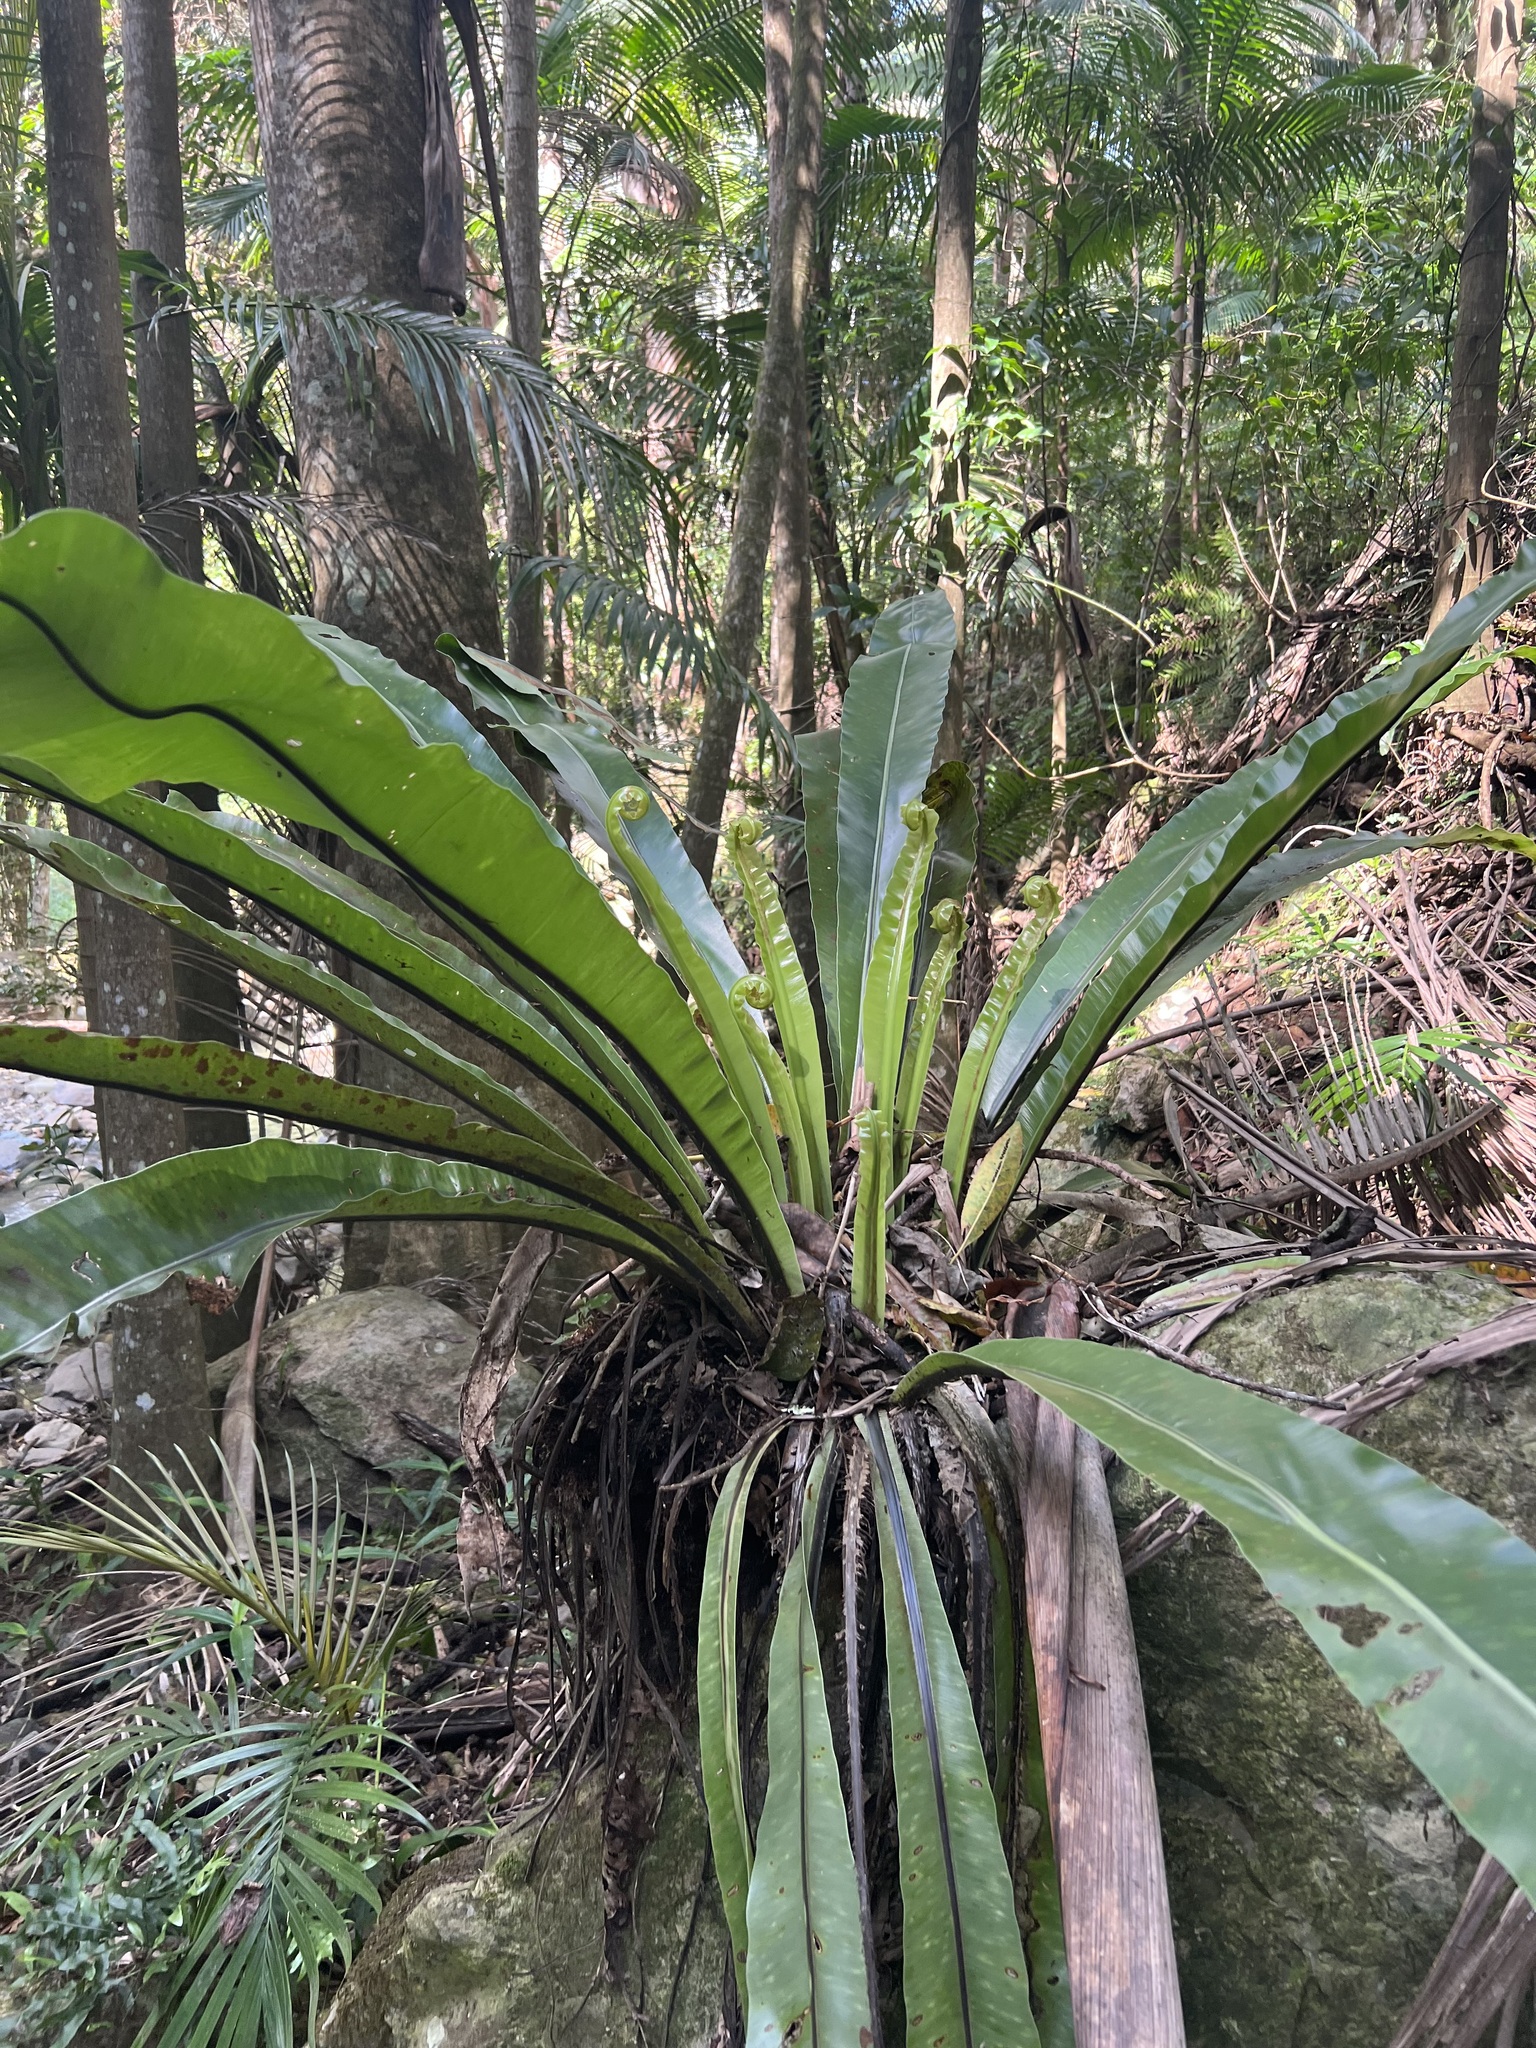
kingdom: Plantae
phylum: Tracheophyta
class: Polypodiopsida
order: Polypodiales
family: Aspleniaceae
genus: Asplenium
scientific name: Asplenium australasicum
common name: Bird's-nest fern
